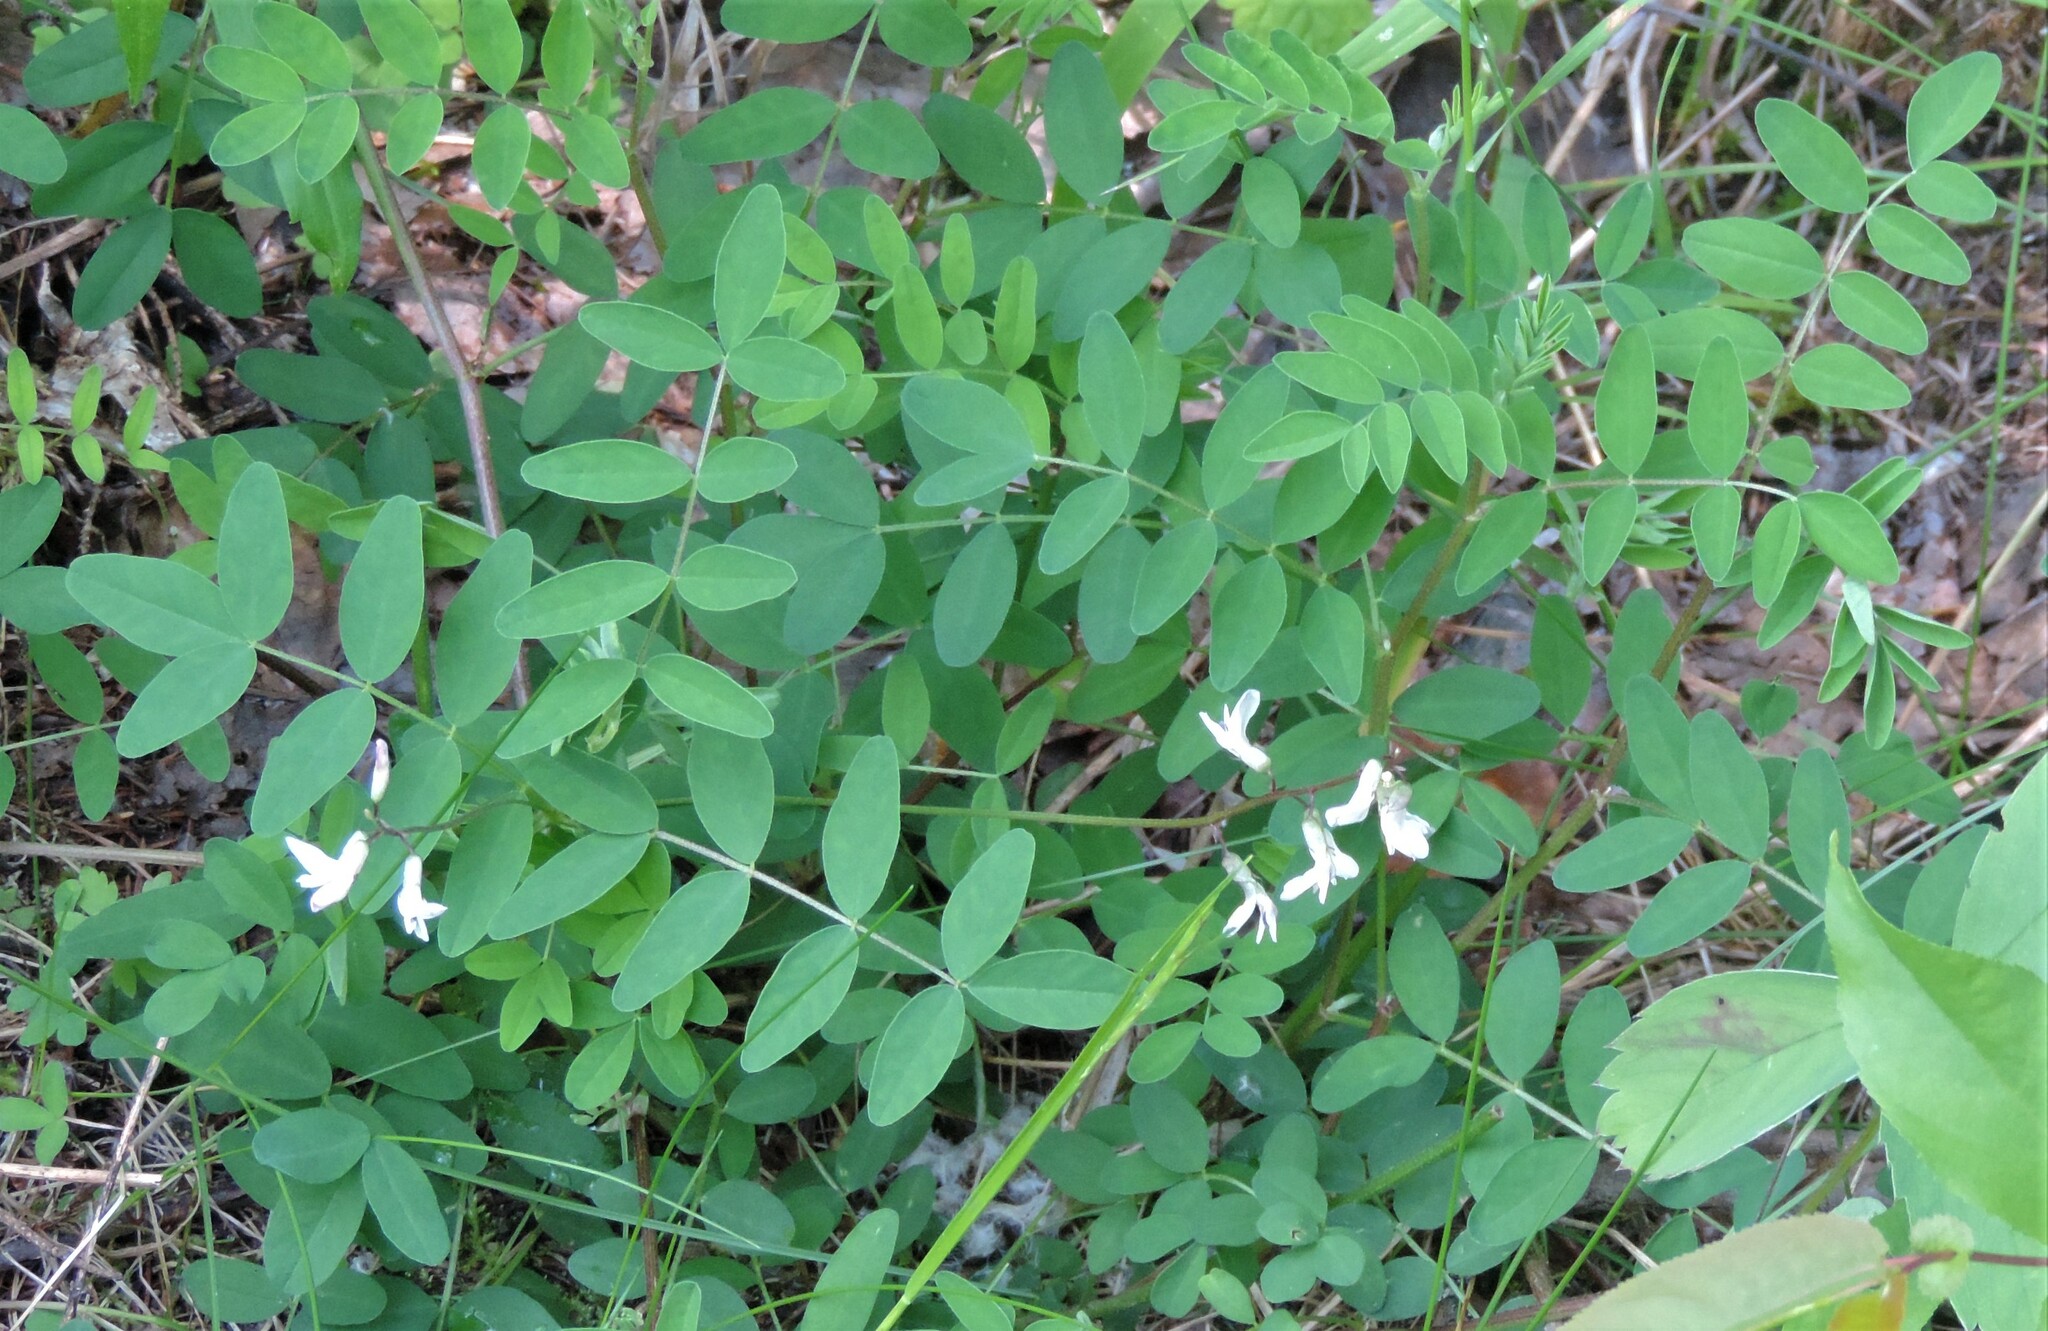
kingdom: Plantae
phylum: Tracheophyta
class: Magnoliopsida
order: Fabales
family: Fabaceae
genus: Astragalus
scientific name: Astragalus robbinsii
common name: Robbins' milk-vetch
